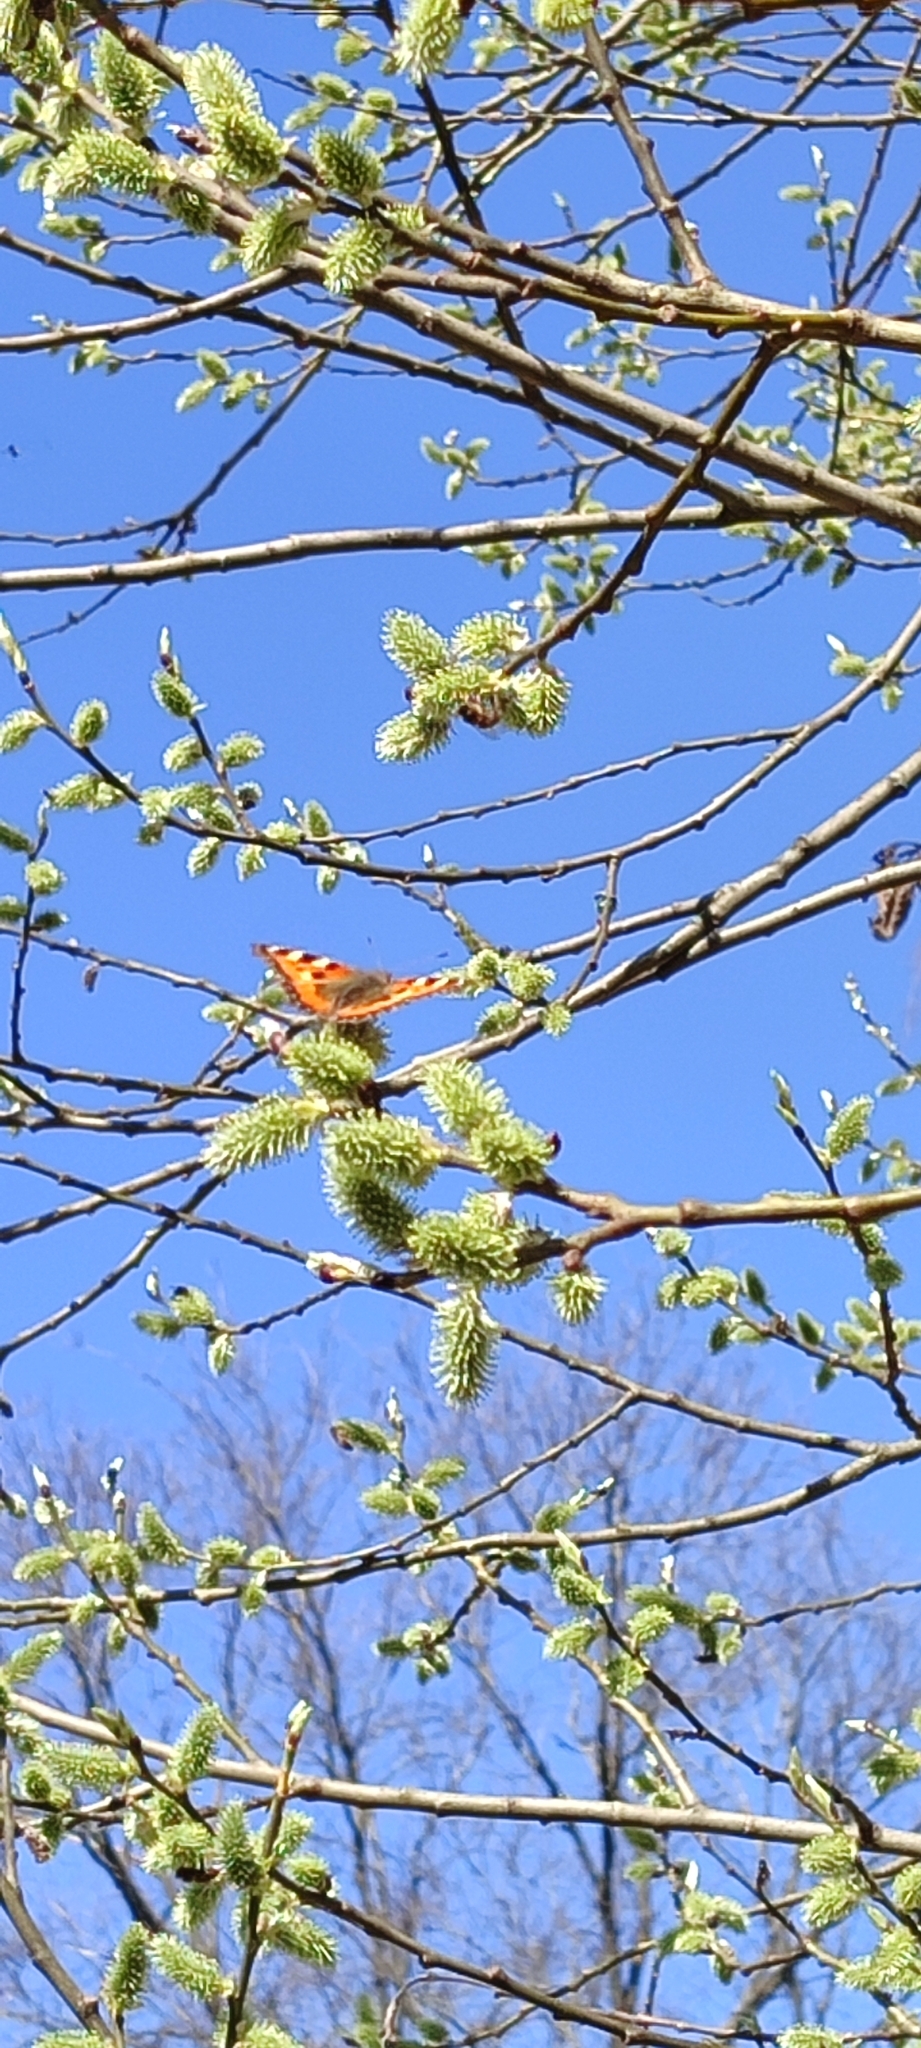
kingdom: Plantae
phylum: Tracheophyta
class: Magnoliopsida
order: Malpighiales
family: Salicaceae
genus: Salix
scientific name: Salix caprea
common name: Goat willow
